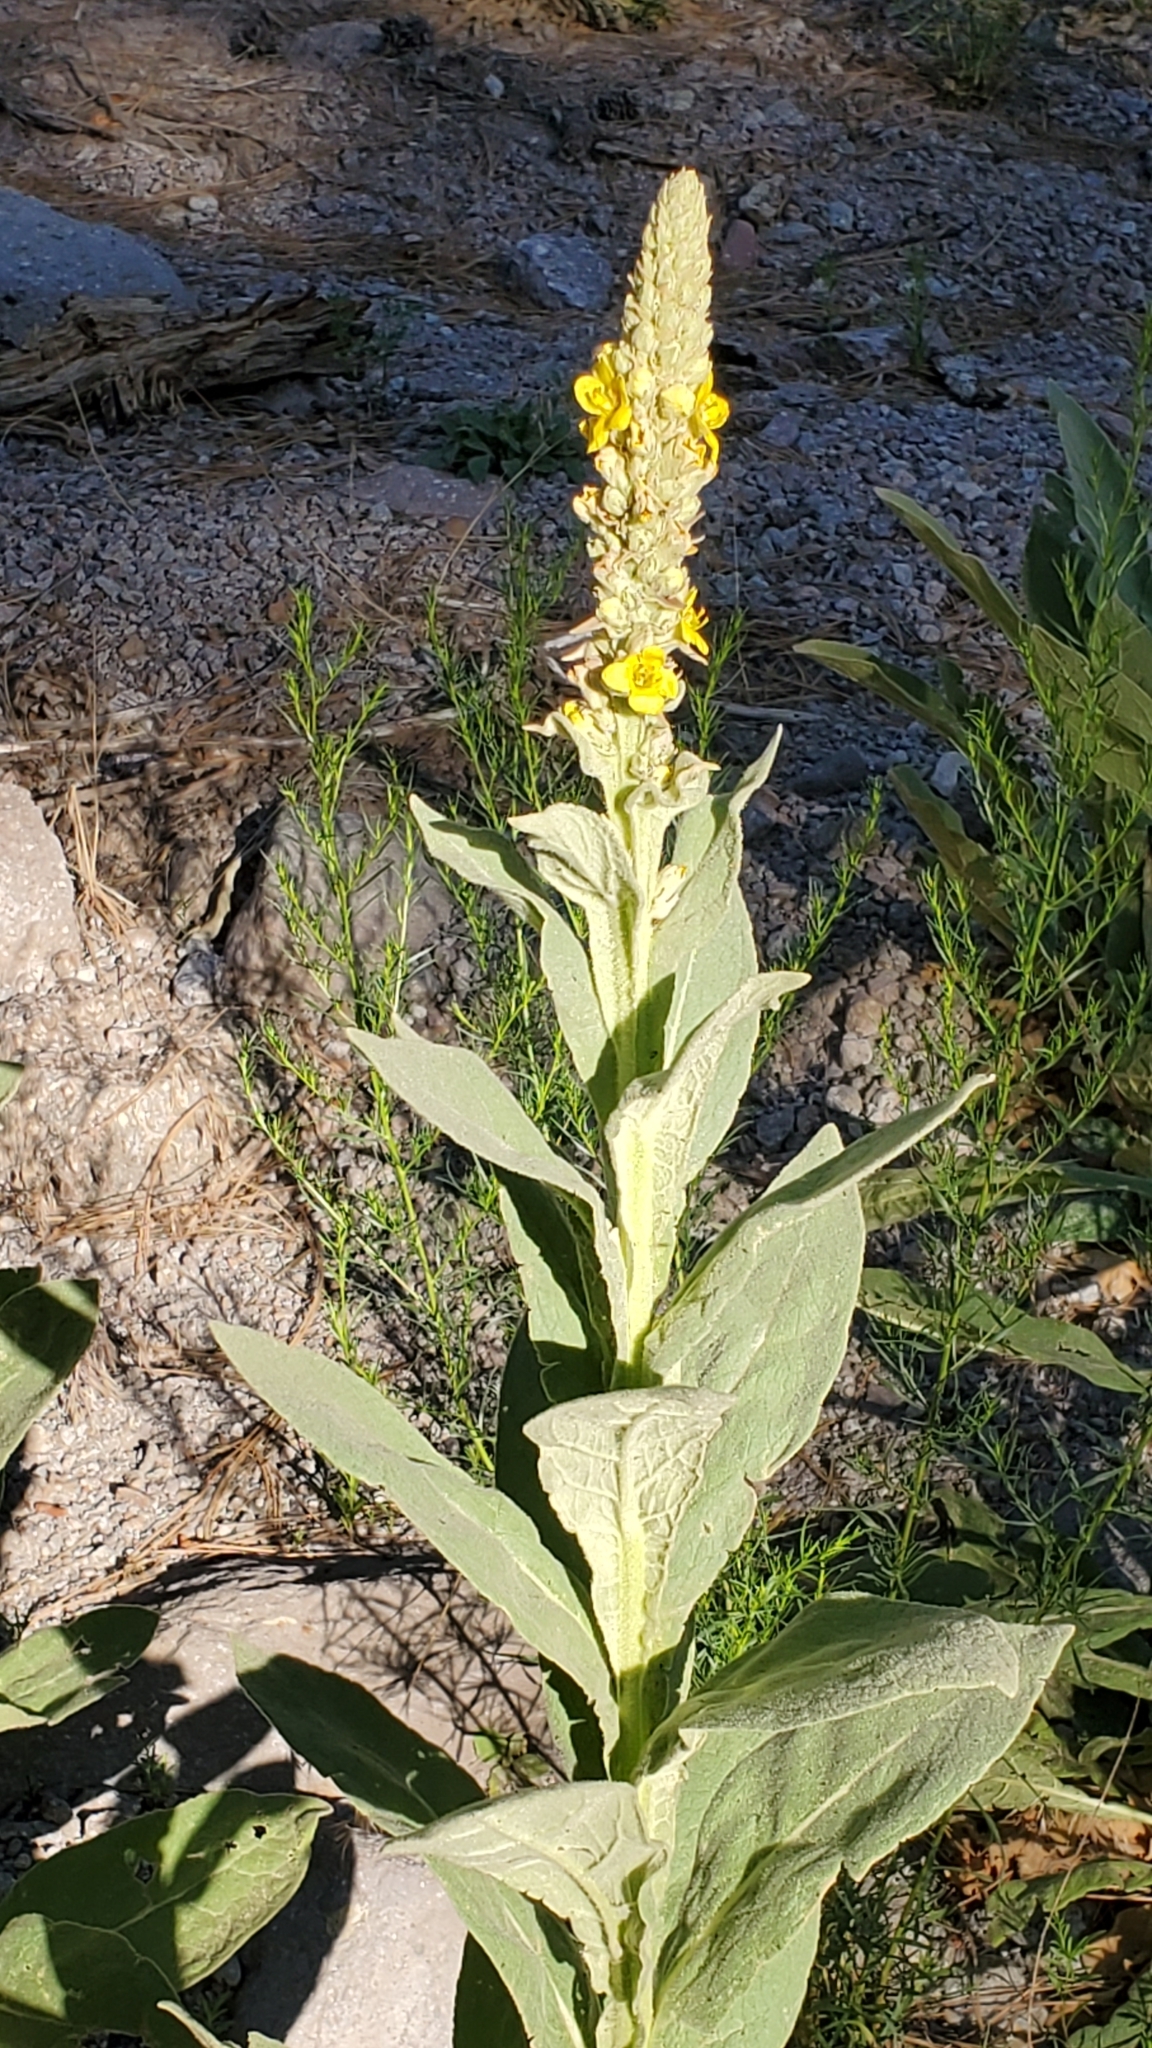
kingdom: Plantae
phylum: Tracheophyta
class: Magnoliopsida
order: Lamiales
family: Scrophulariaceae
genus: Verbascum
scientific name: Verbascum thapsus
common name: Common mullein
